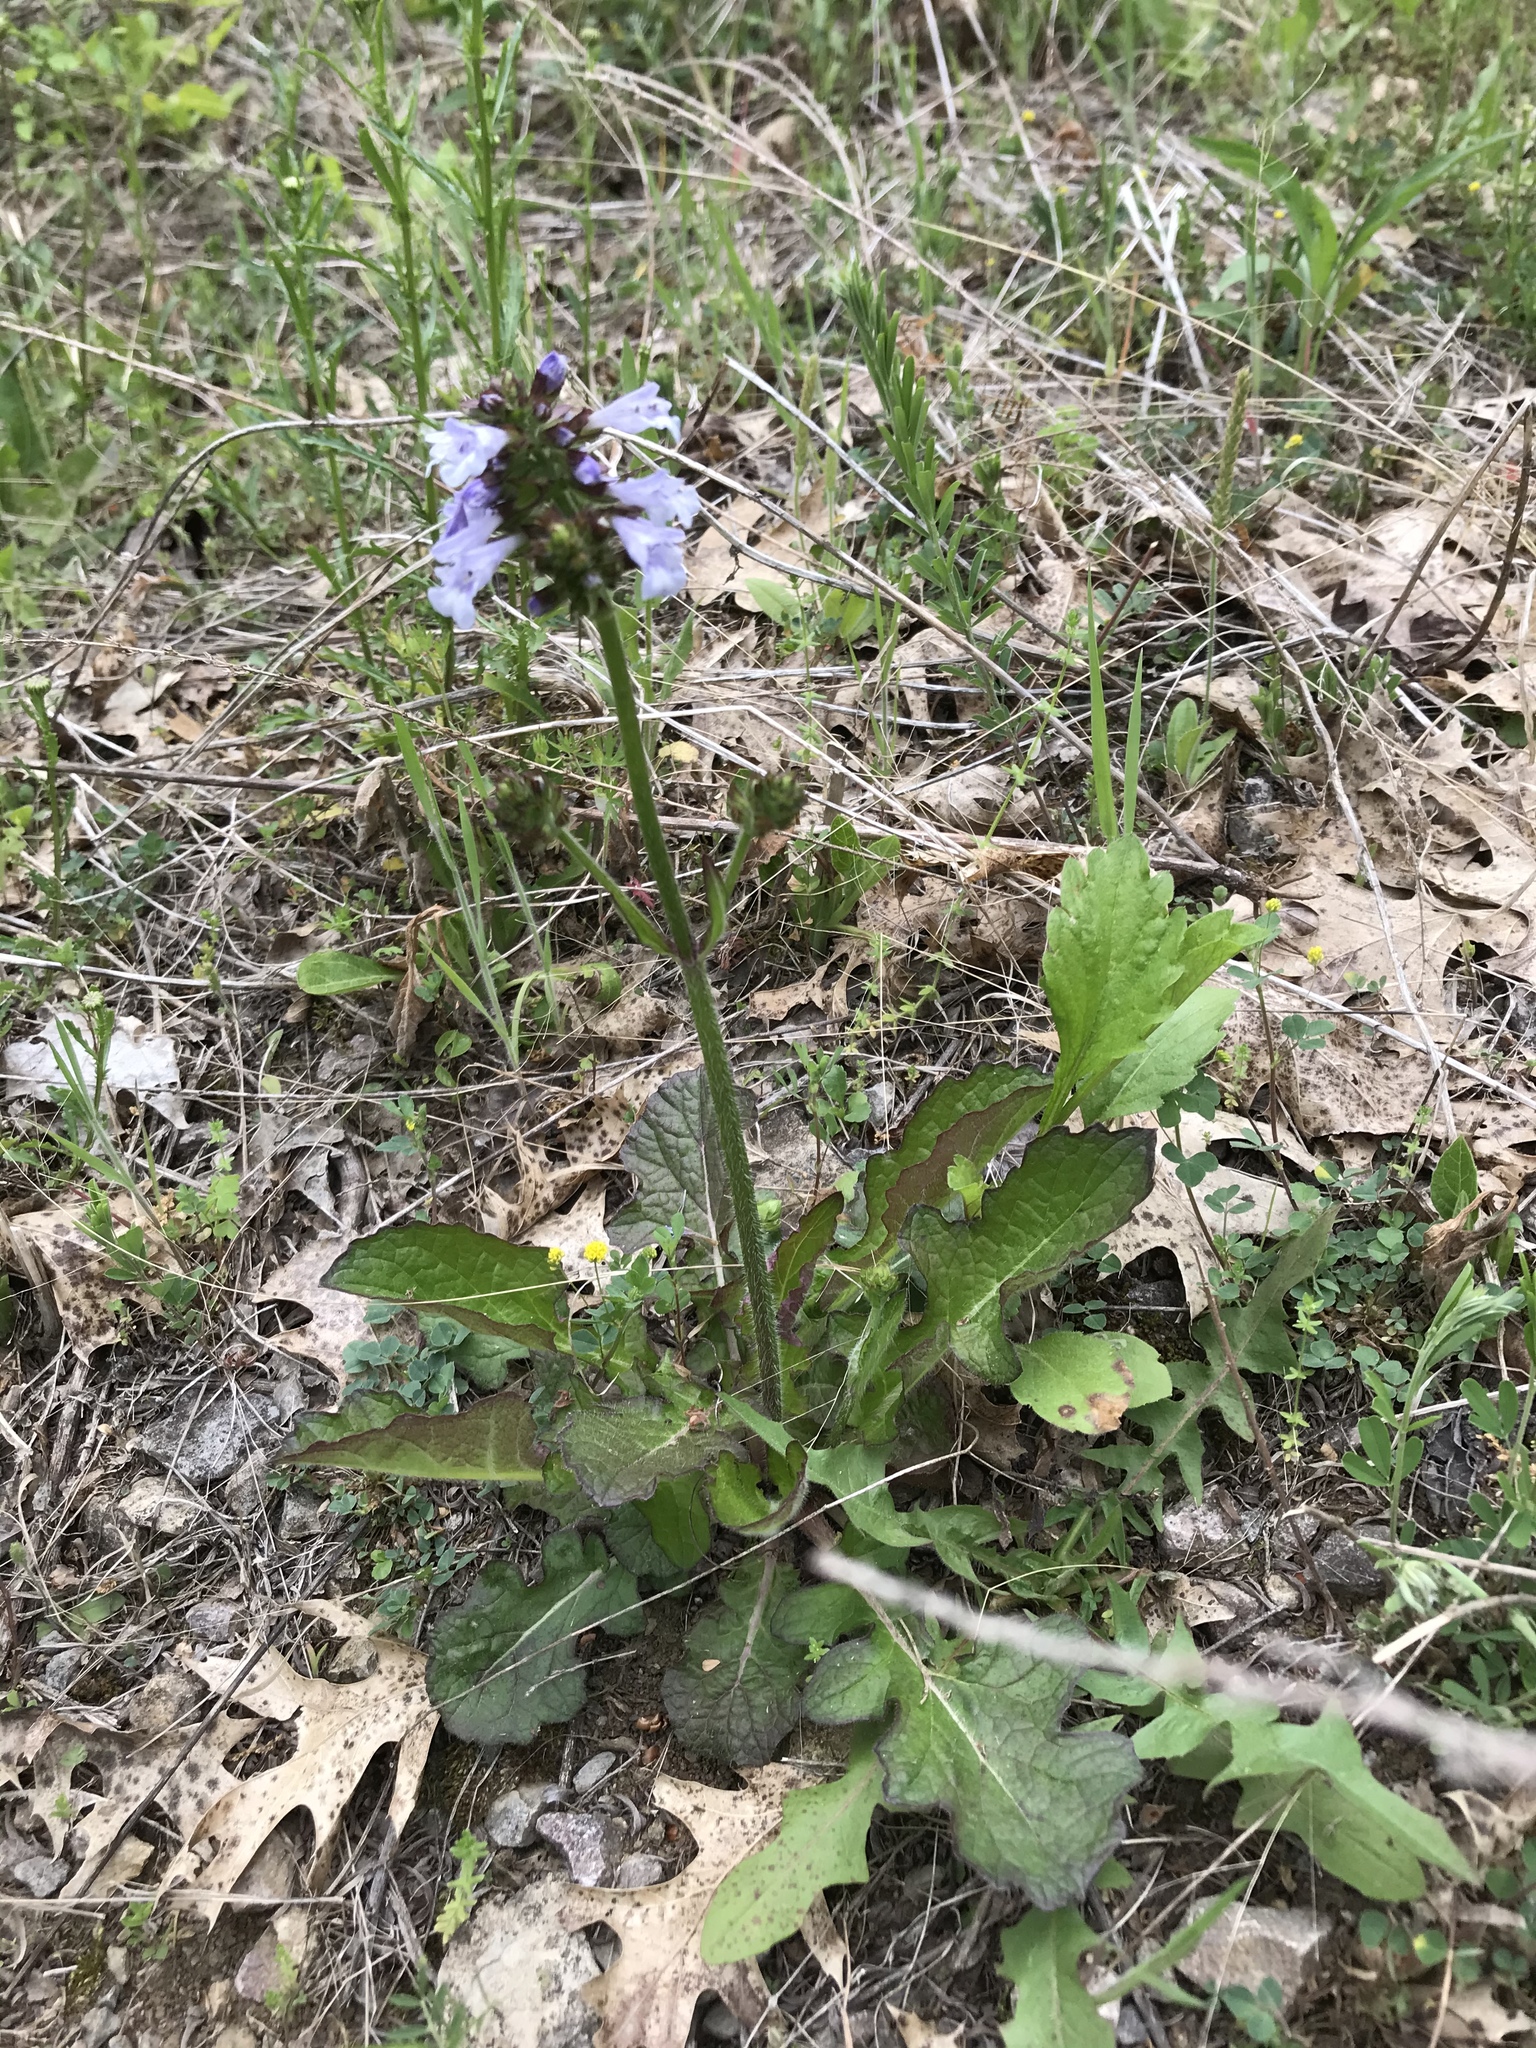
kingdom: Plantae
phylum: Tracheophyta
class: Magnoliopsida
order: Lamiales
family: Lamiaceae
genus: Salvia
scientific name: Salvia lyrata
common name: Cancerweed
